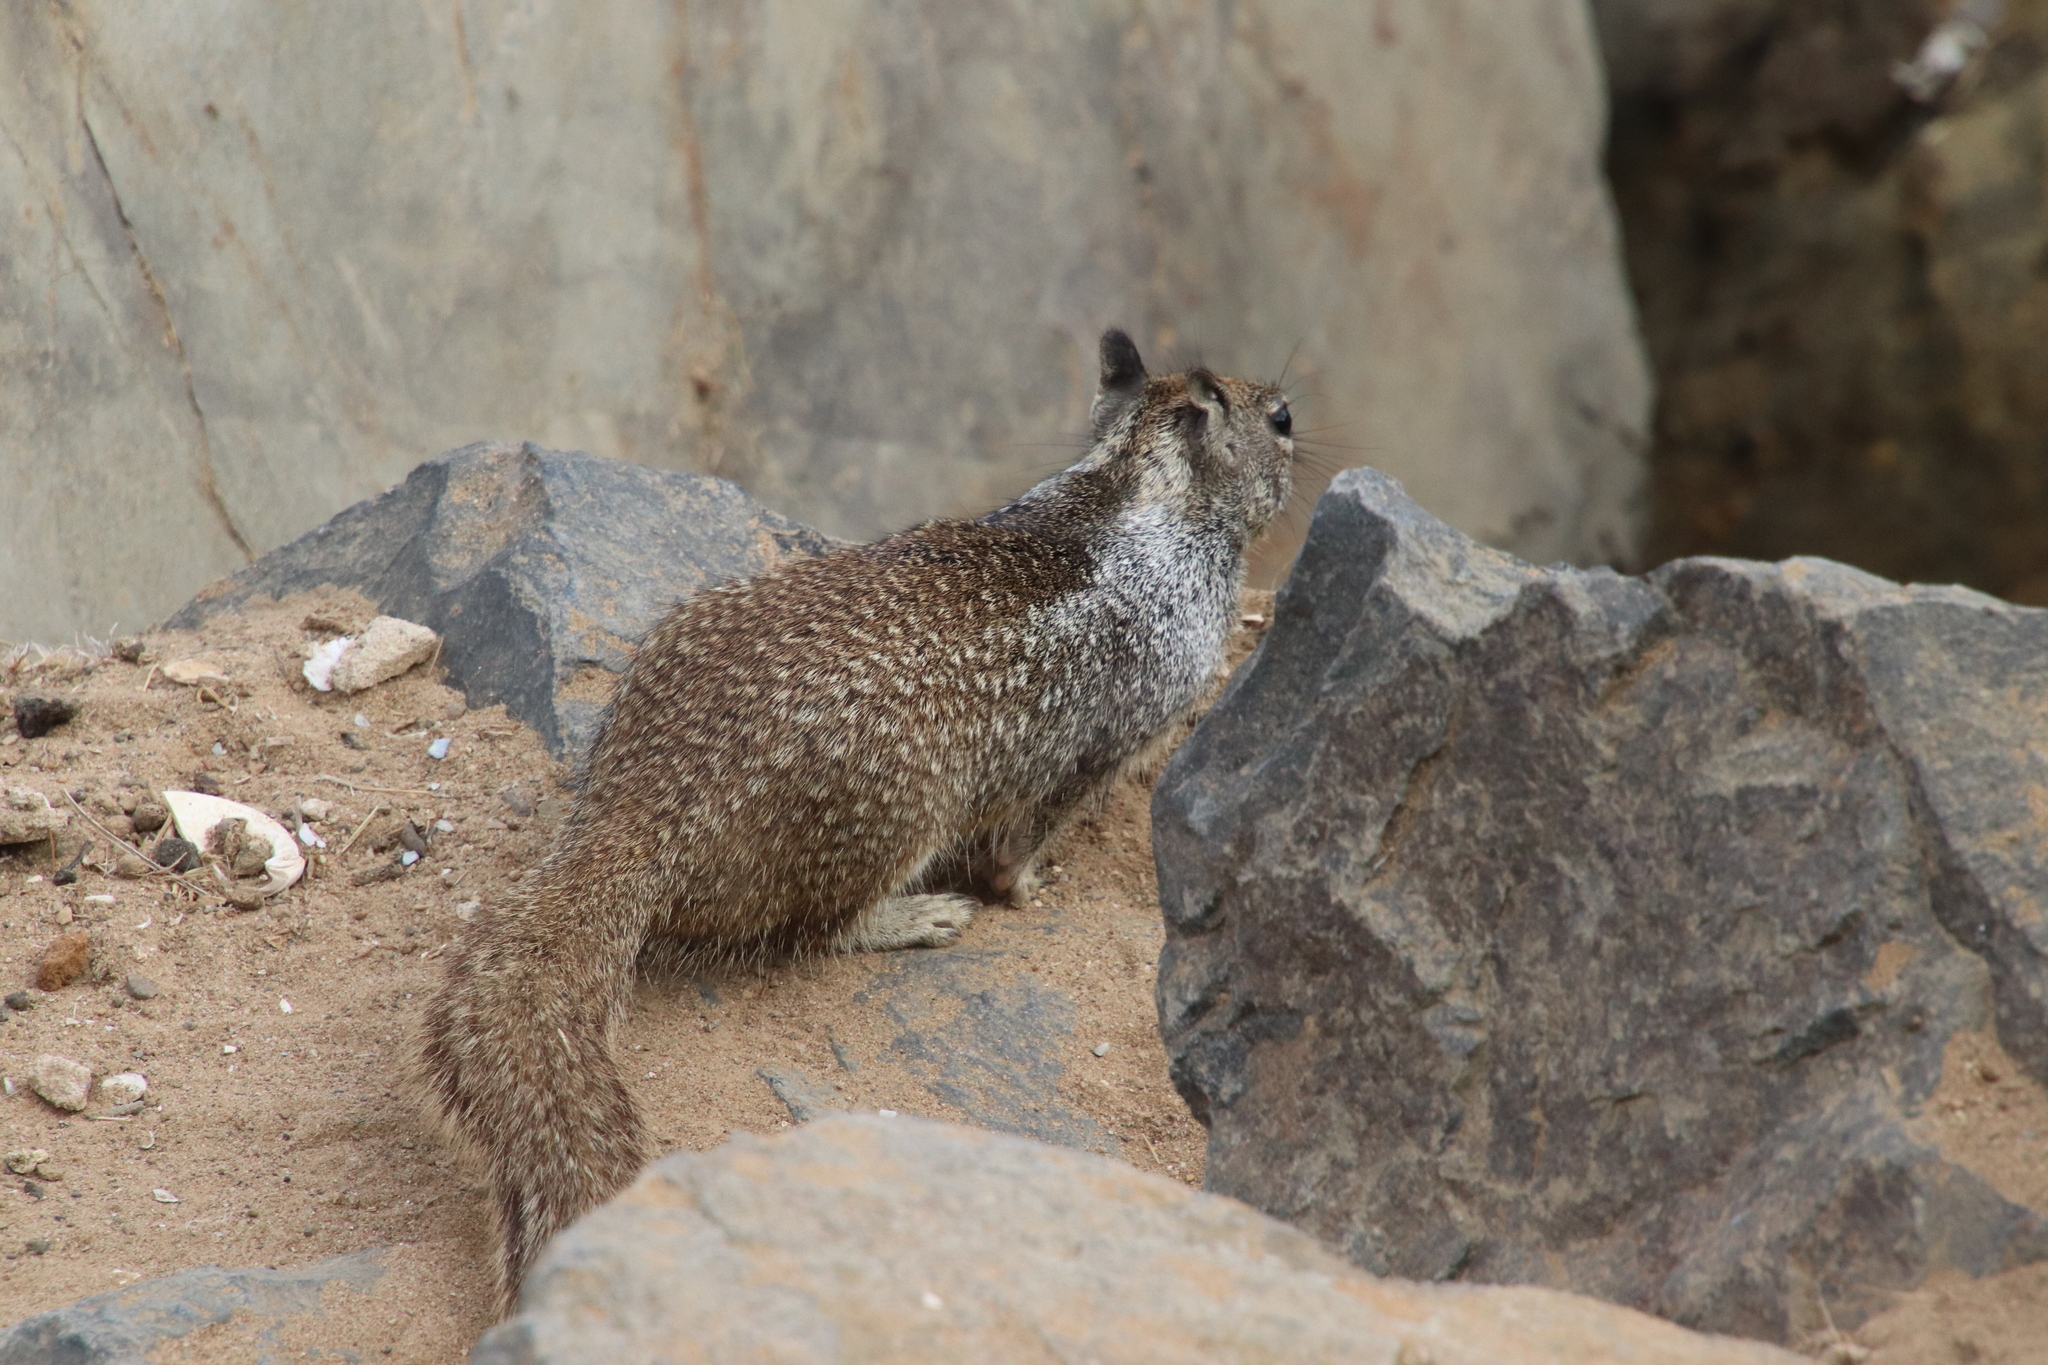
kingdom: Animalia
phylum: Chordata
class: Mammalia
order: Rodentia
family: Sciuridae
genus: Otospermophilus
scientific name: Otospermophilus beecheyi
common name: California ground squirrel
